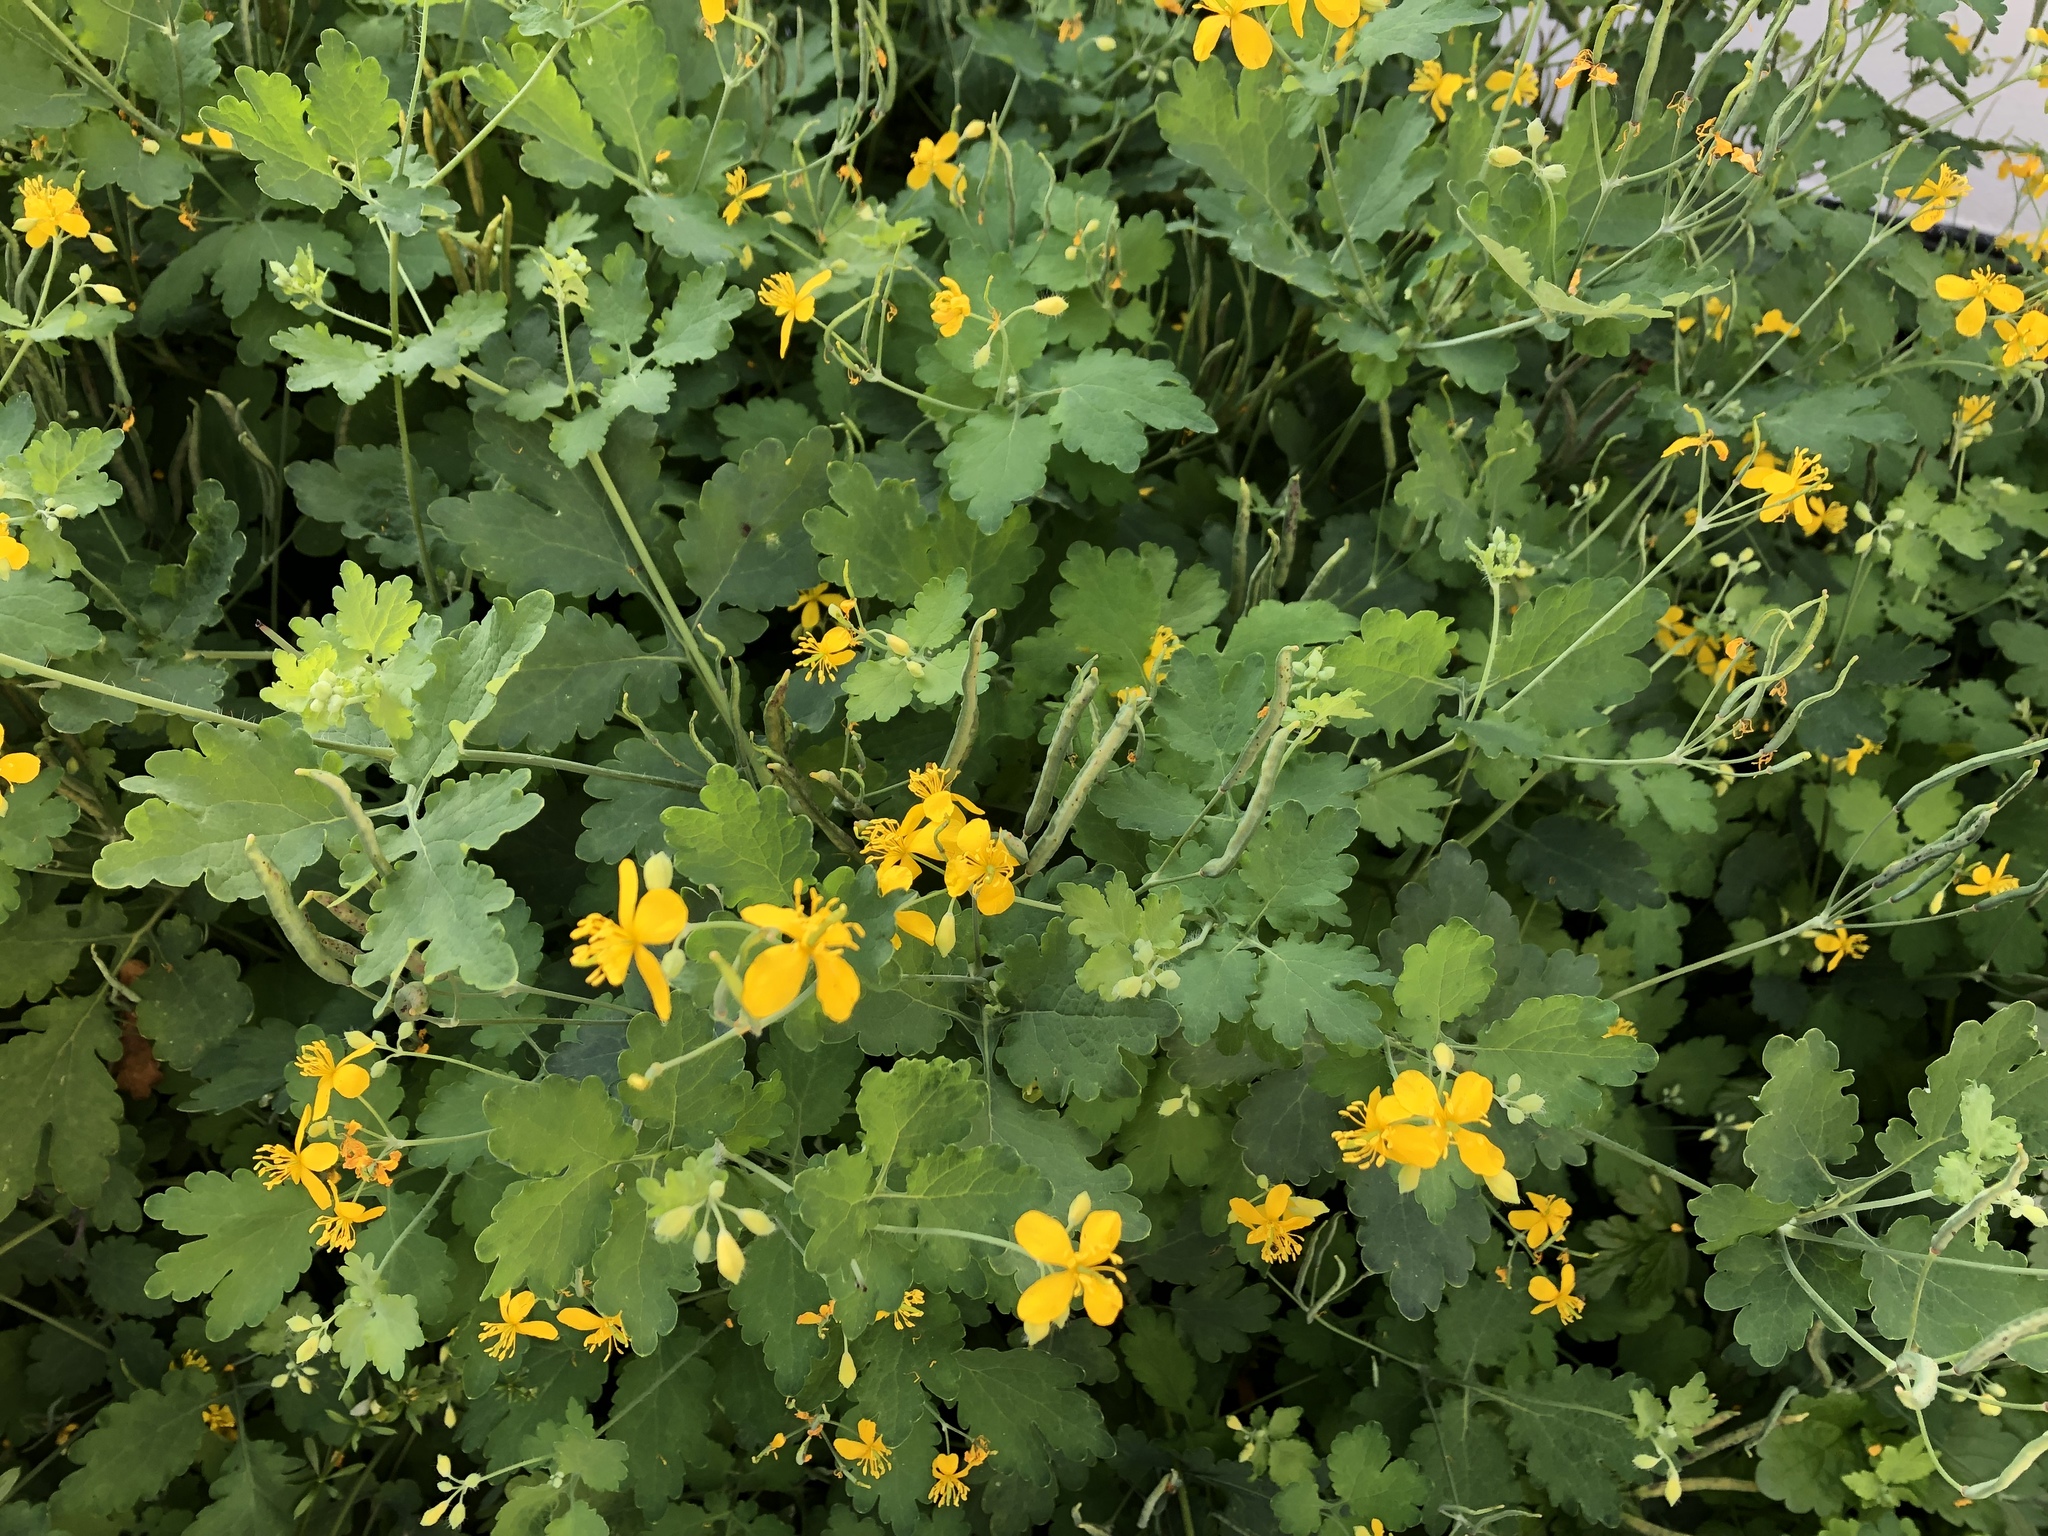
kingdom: Plantae
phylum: Tracheophyta
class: Magnoliopsida
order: Ranunculales
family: Papaveraceae
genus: Chelidonium
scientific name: Chelidonium majus
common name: Greater celandine
